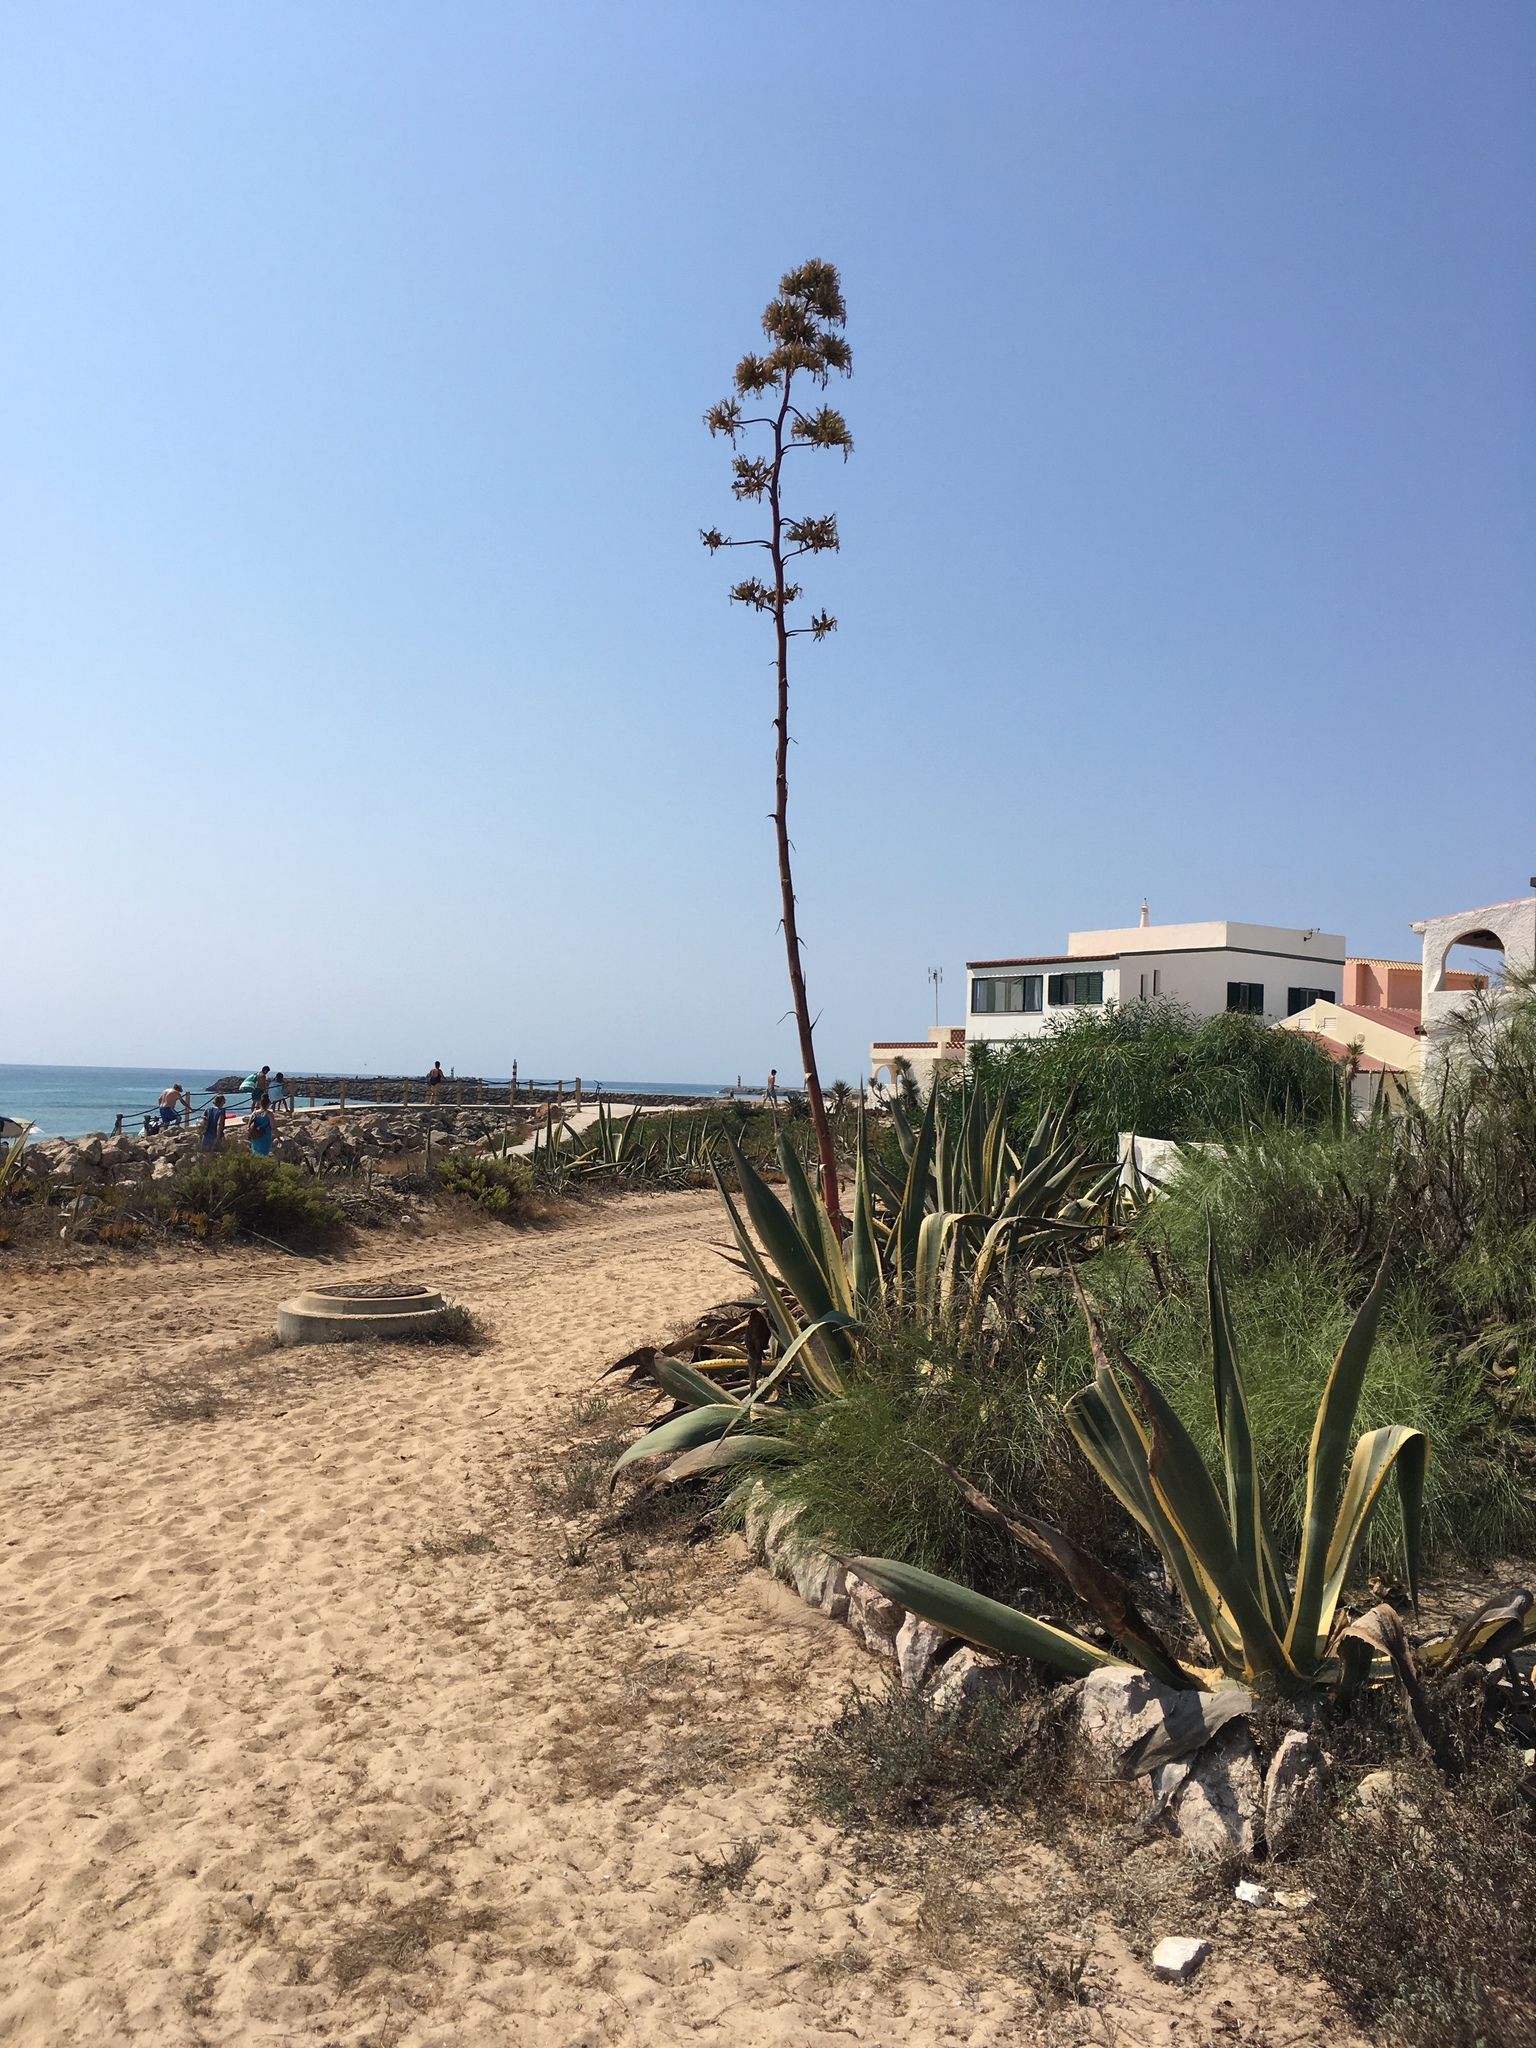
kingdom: Plantae
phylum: Tracheophyta
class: Liliopsida
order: Asparagales
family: Asparagaceae
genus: Agave
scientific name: Agave americana
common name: Centuryplant
